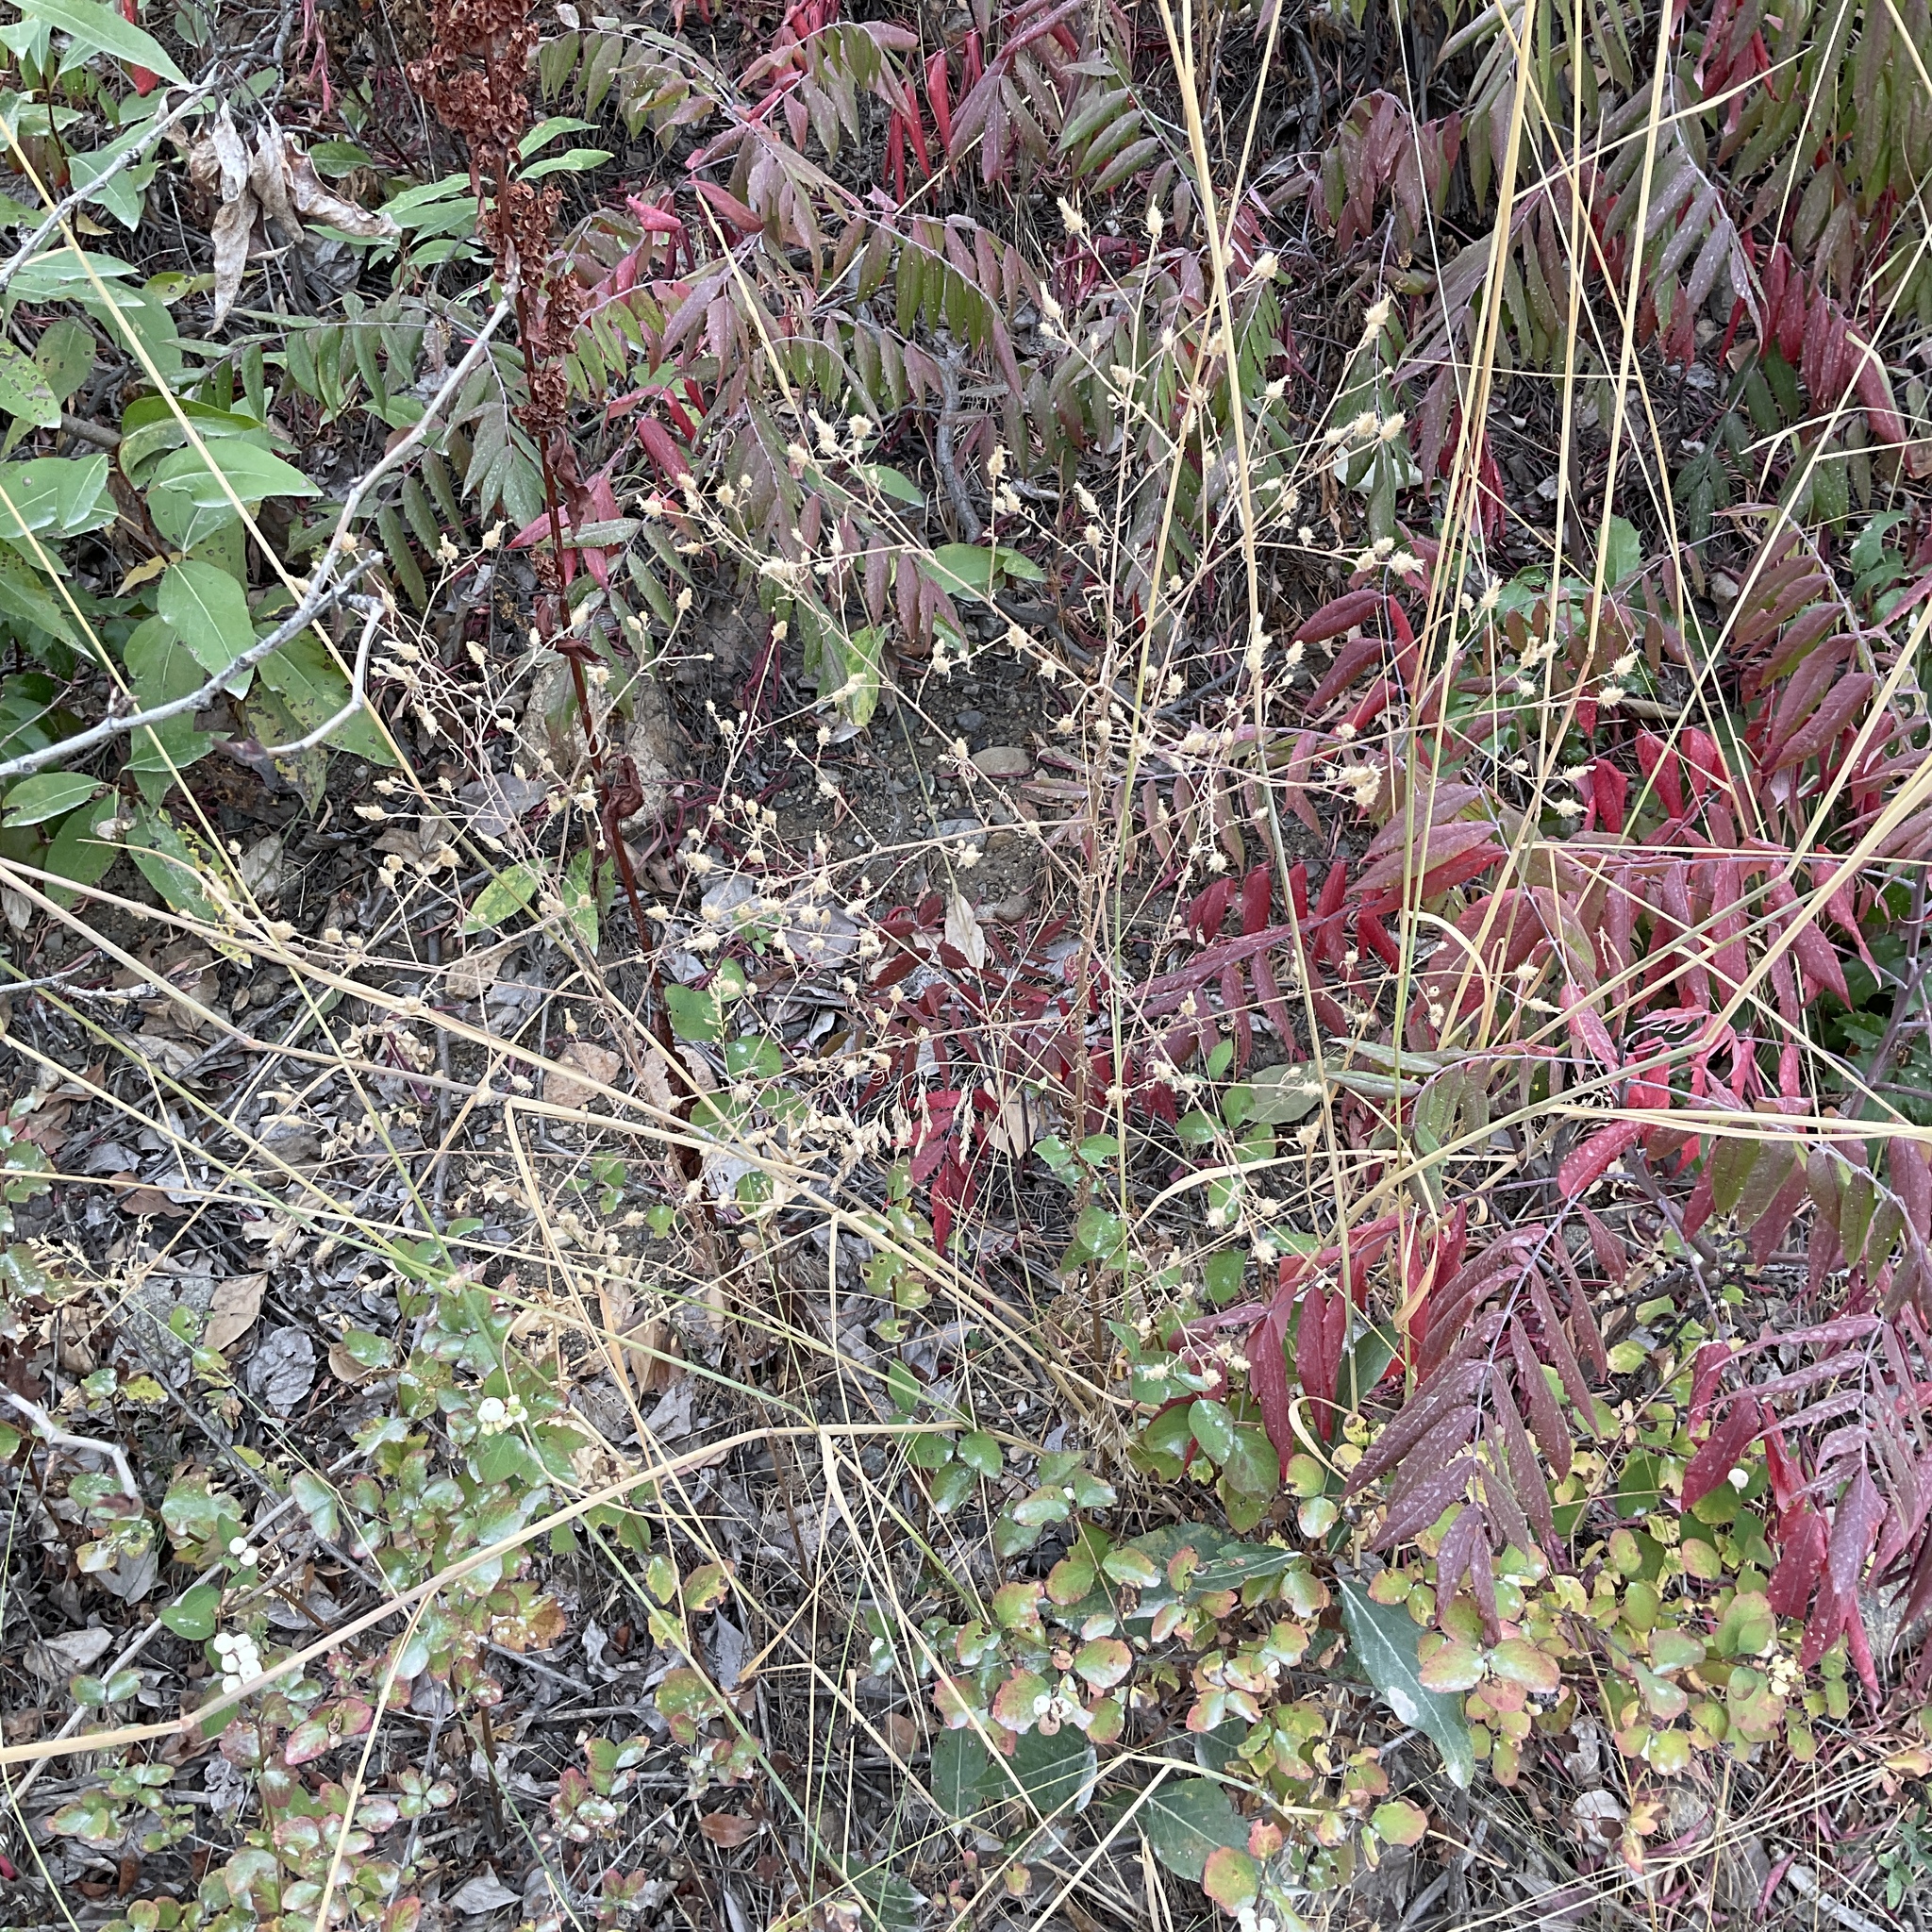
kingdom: Plantae
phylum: Tracheophyta
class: Magnoliopsida
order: Asterales
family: Asteraceae
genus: Centaurea
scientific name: Centaurea diffusa
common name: Diffuse knapweed
